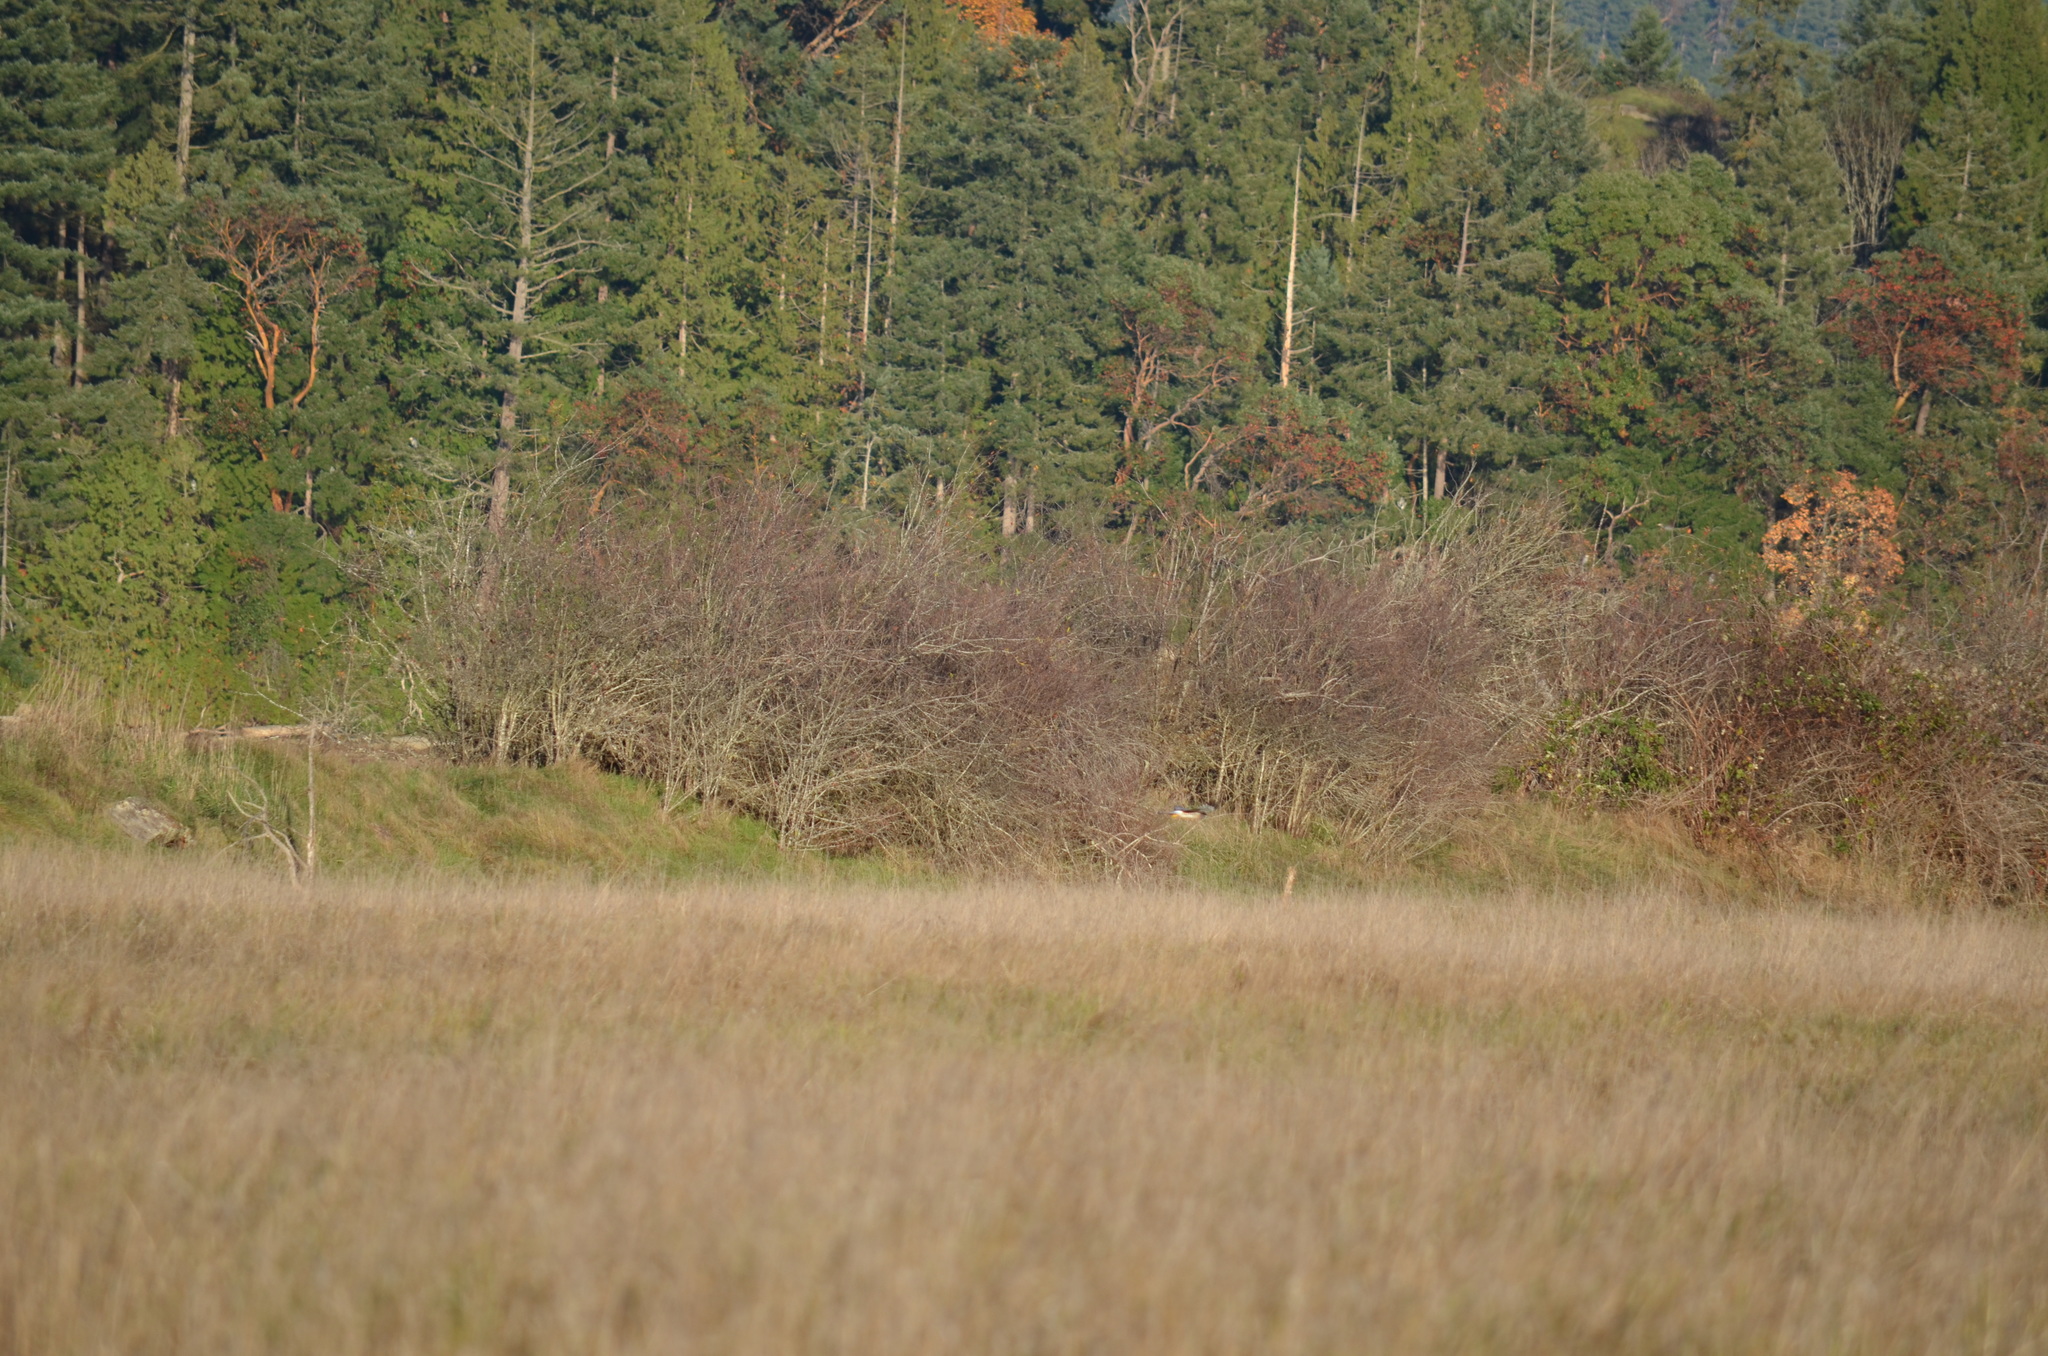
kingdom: Animalia
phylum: Chordata
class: Aves
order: Accipitriformes
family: Accipitridae
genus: Circus
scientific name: Circus cyaneus
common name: Hen harrier
